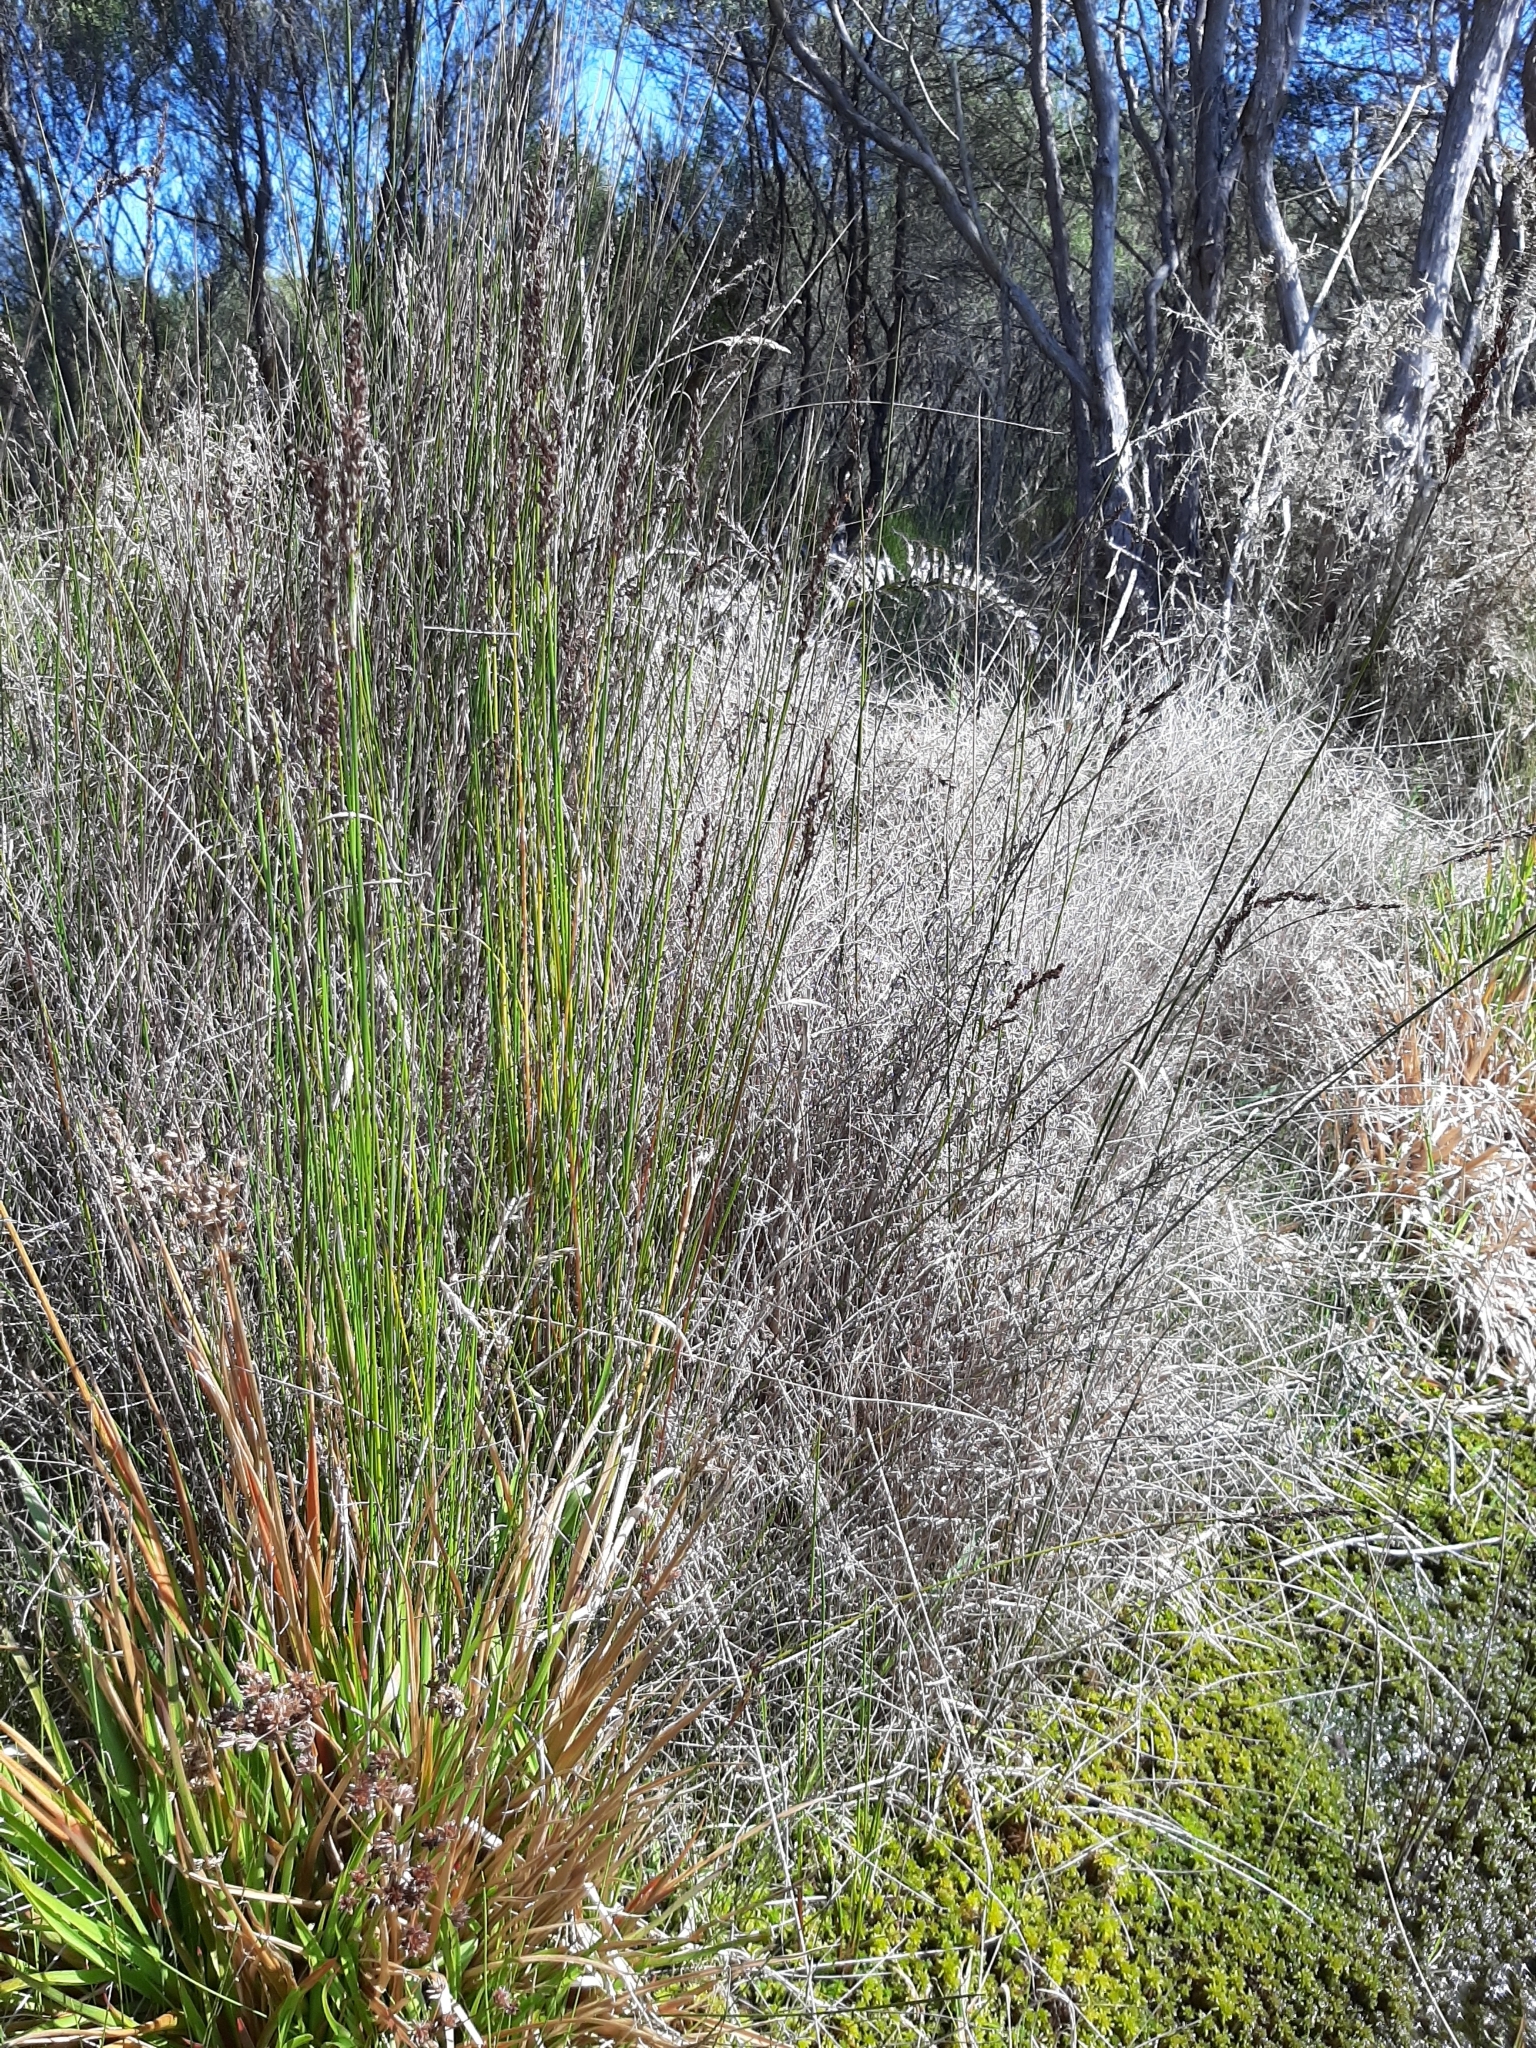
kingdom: Plantae
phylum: Tracheophyta
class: Liliopsida
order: Poales
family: Cyperaceae
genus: Machaerina
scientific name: Machaerina rubiginosa
